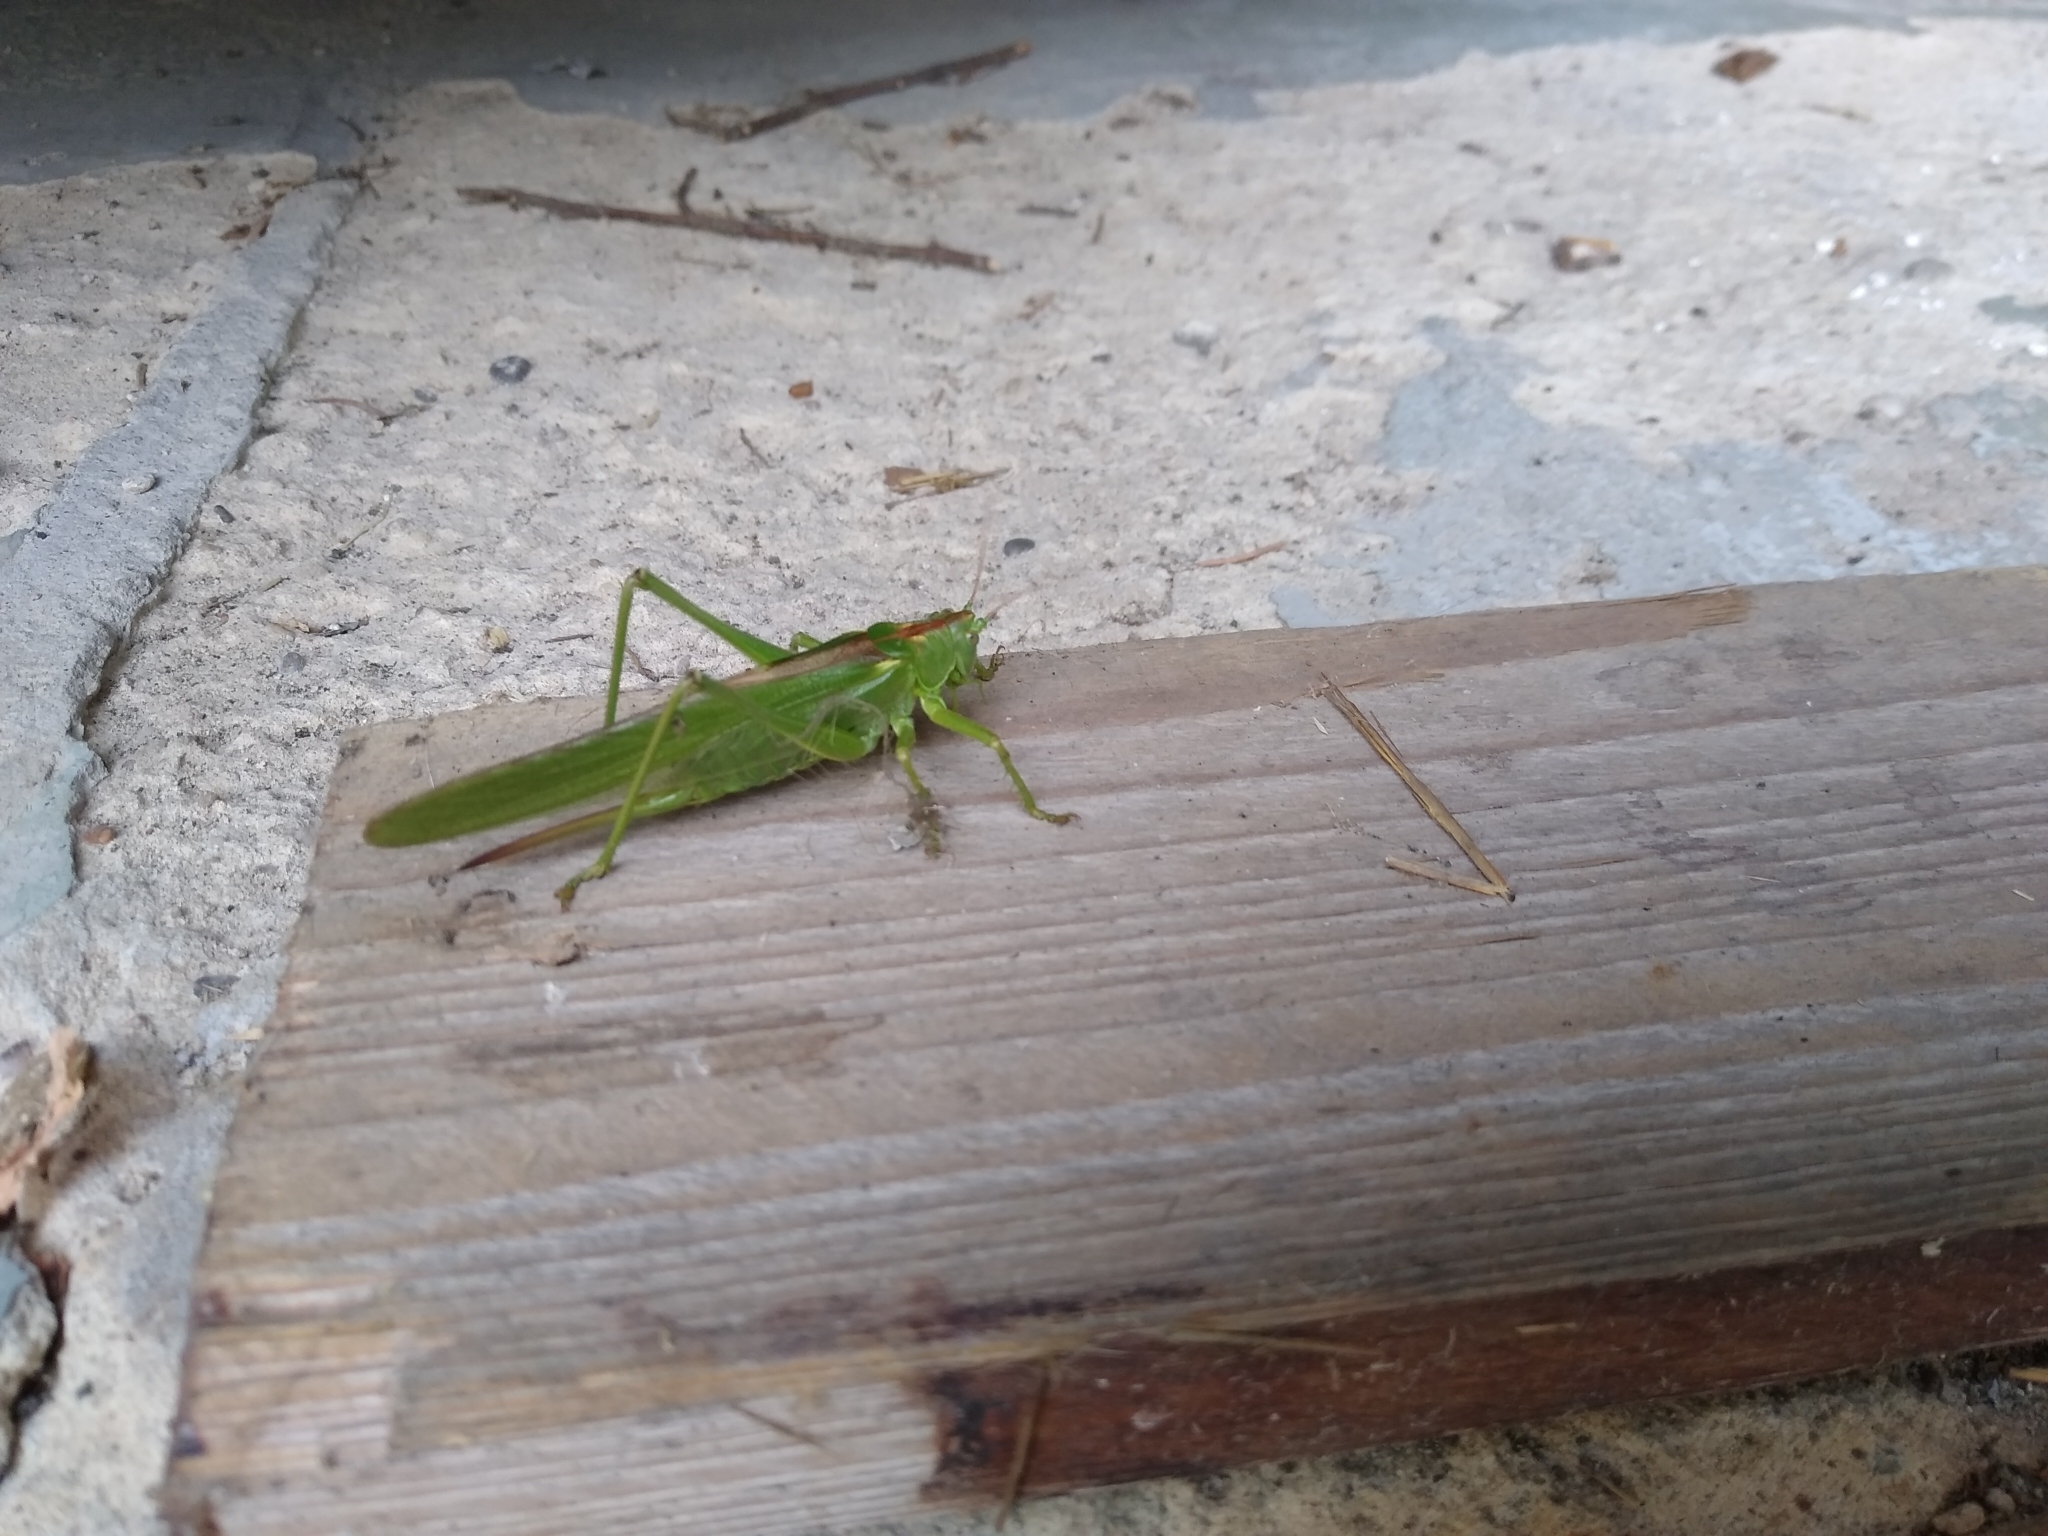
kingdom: Animalia
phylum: Arthropoda
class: Insecta
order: Orthoptera
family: Tettigoniidae
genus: Tettigonia
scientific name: Tettigonia viridissima
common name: Great green bush-cricket
